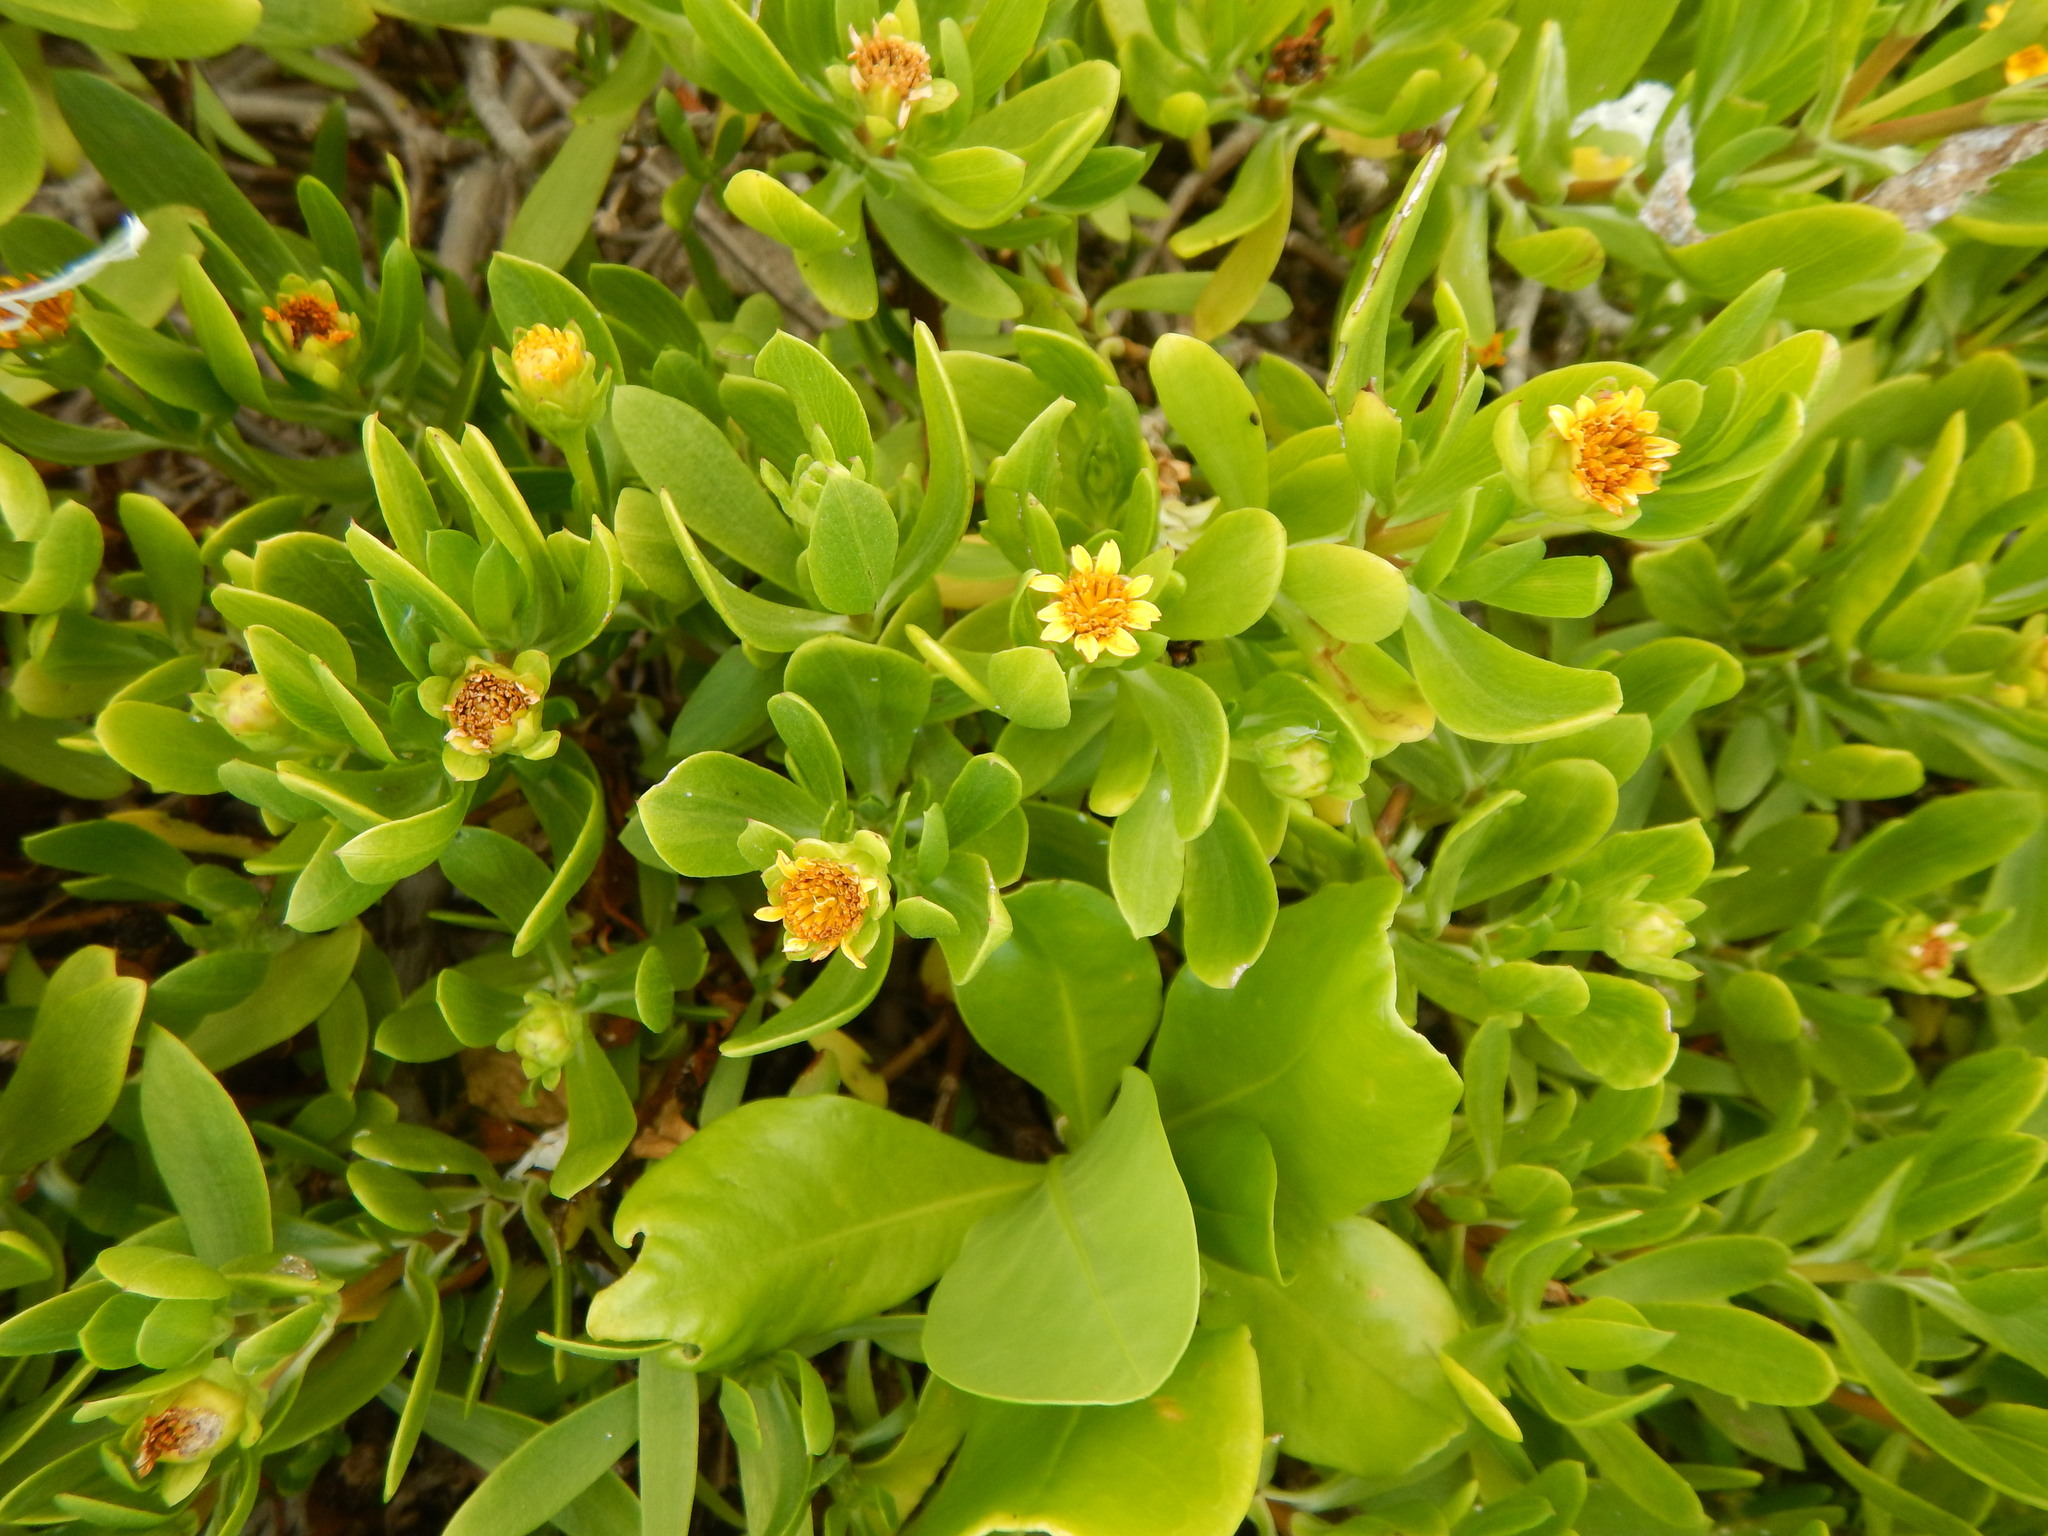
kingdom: Plantae
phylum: Tracheophyta
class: Magnoliopsida
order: Asterales
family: Asteraceae
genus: Borrichia
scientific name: Borrichia arborescens
